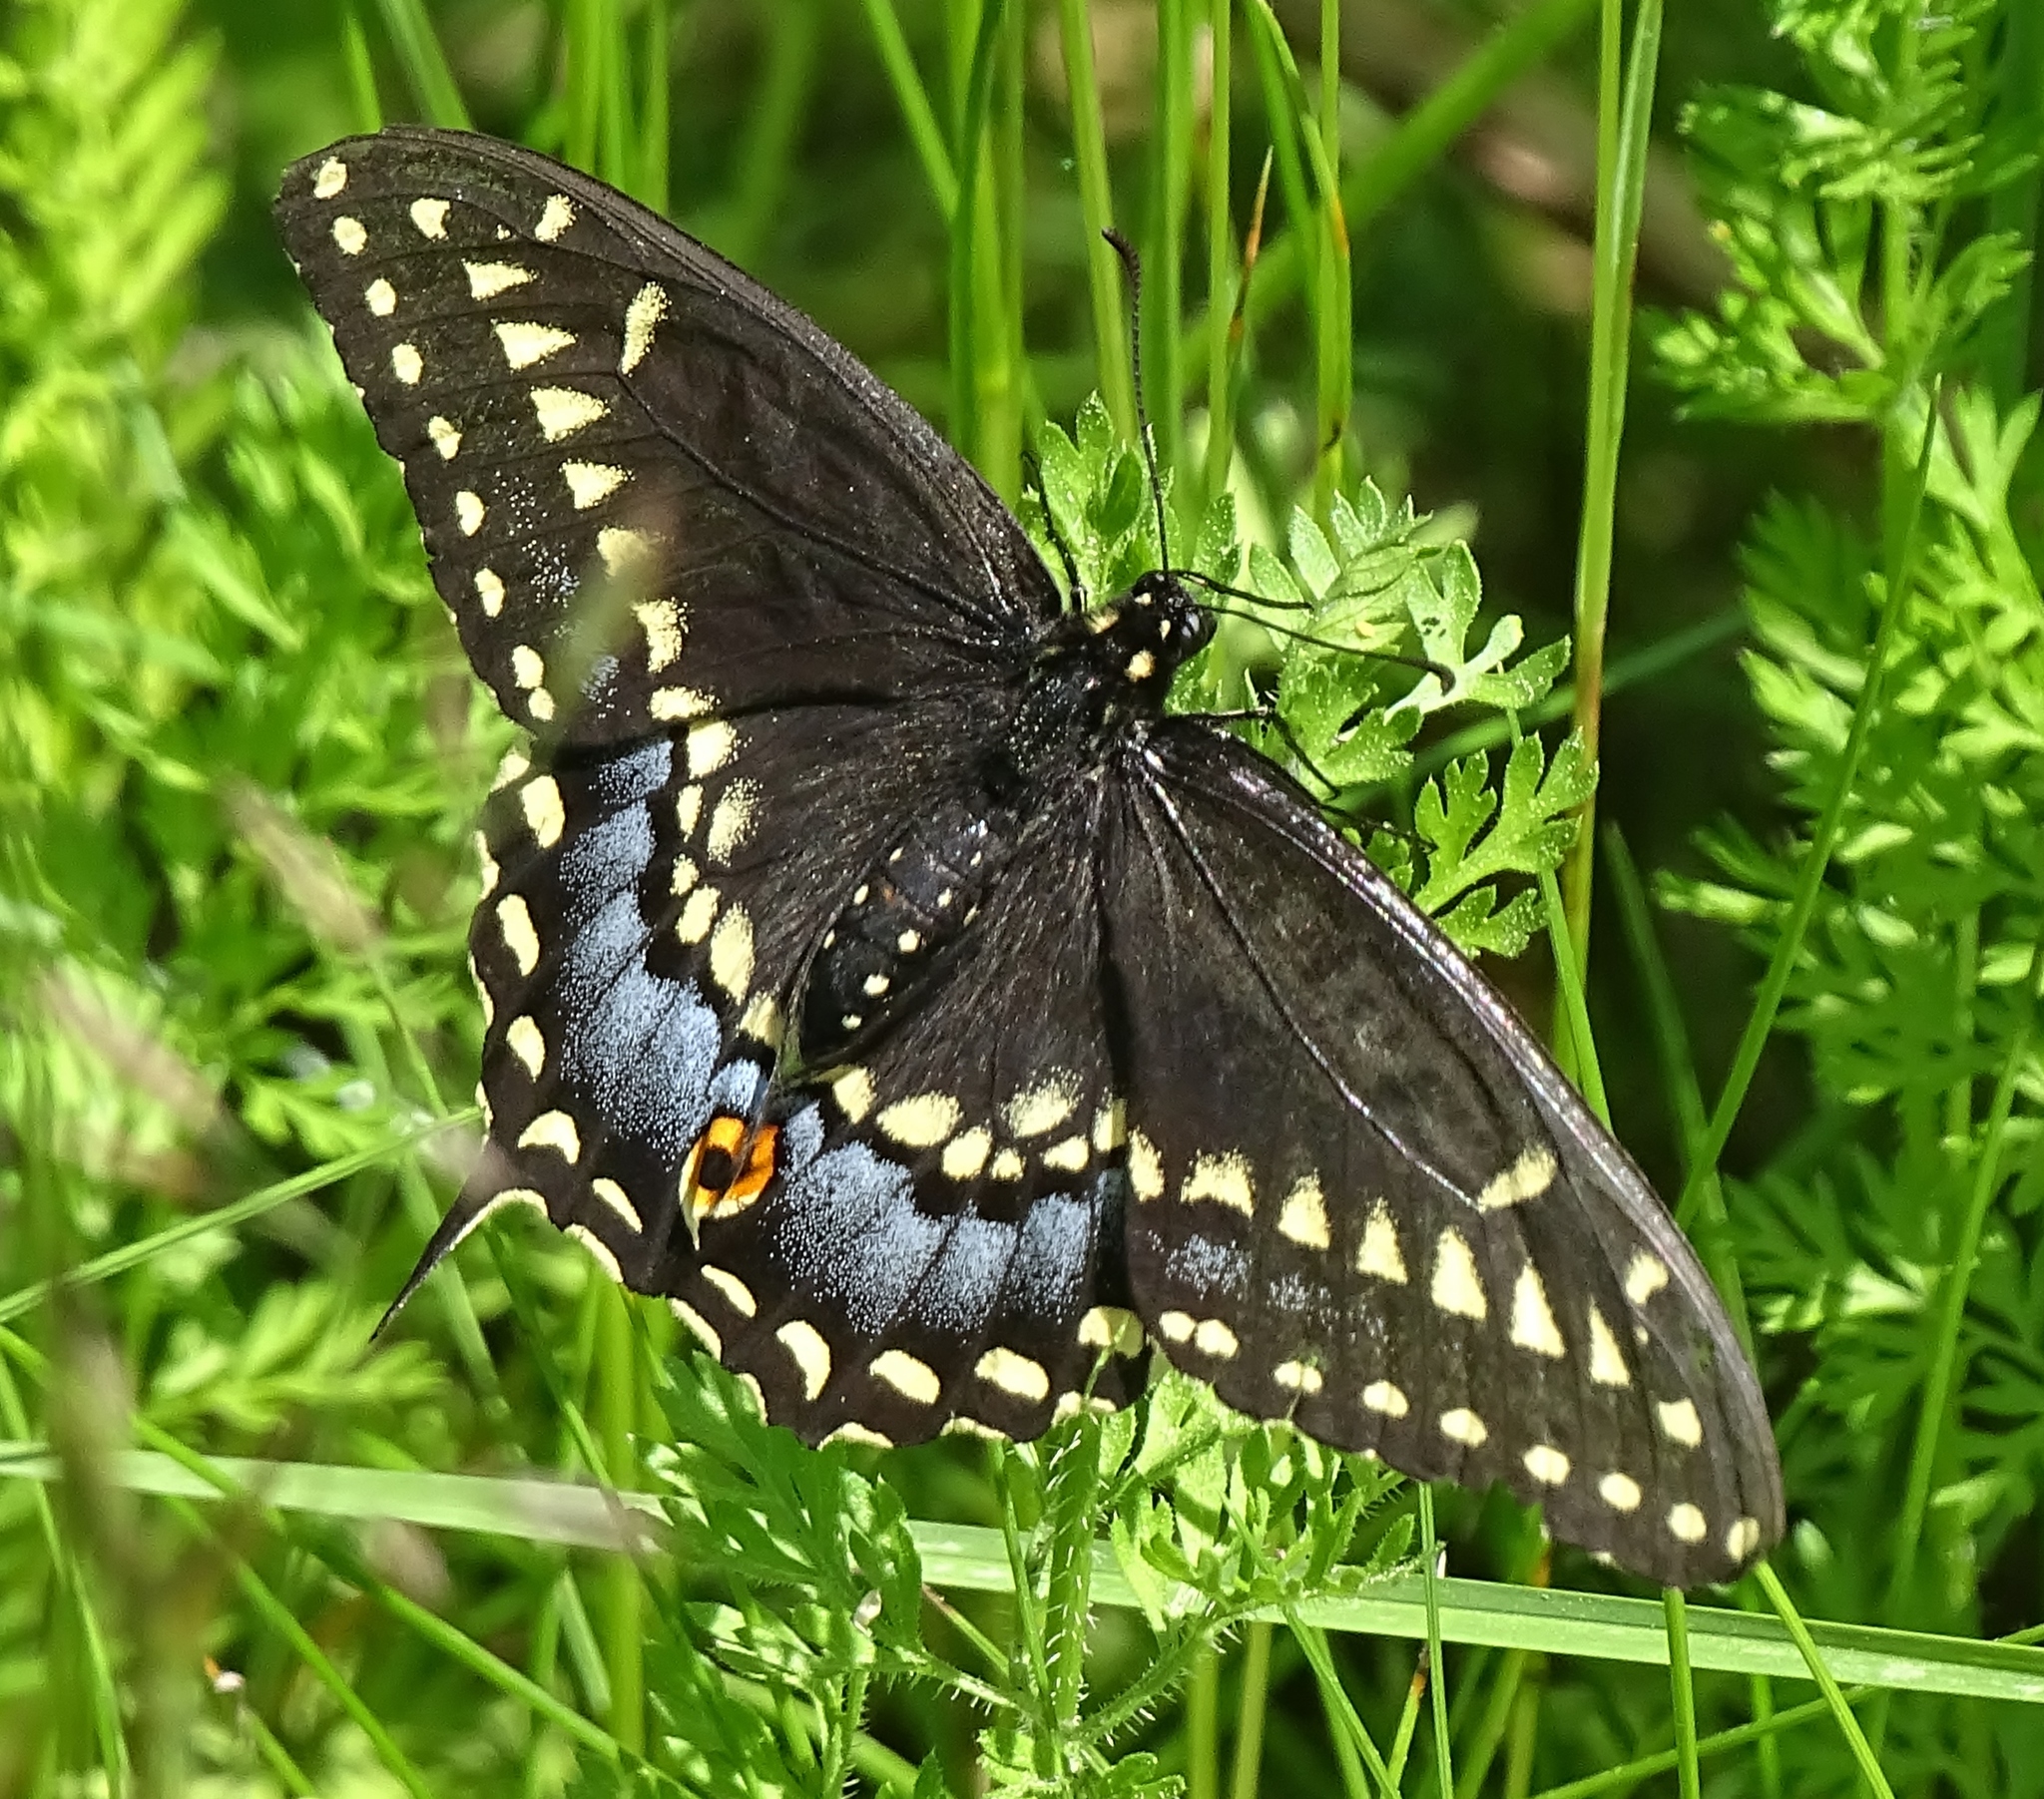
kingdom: Animalia
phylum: Arthropoda
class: Insecta
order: Lepidoptera
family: Papilionidae
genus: Papilio
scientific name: Papilio polyxenes
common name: Black swallowtail
